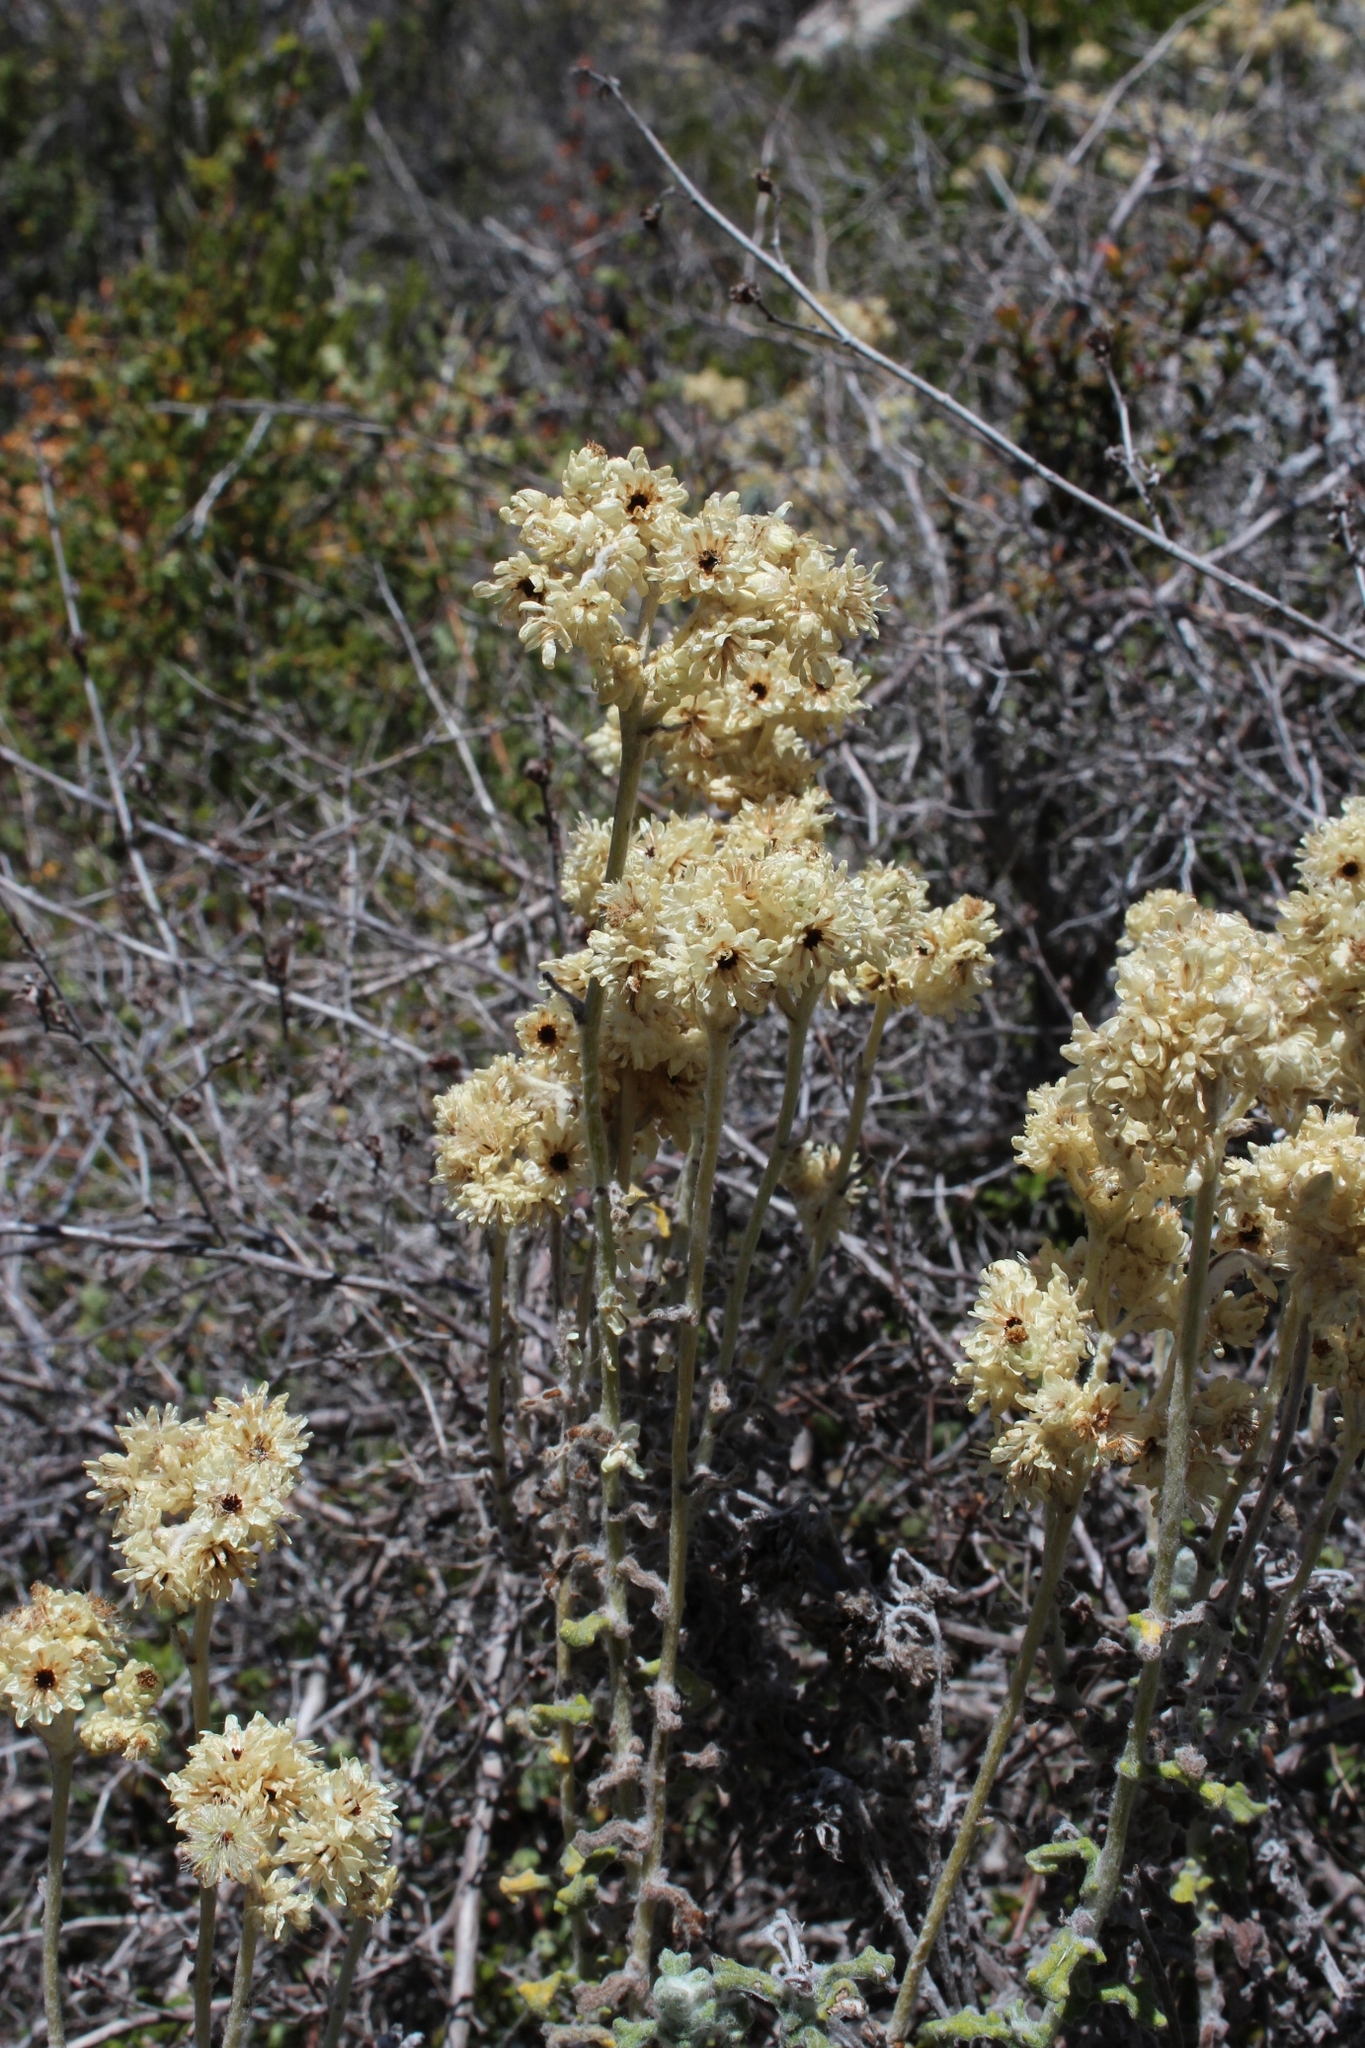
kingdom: Plantae
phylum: Tracheophyta
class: Magnoliopsida
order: Asterales
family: Asteraceae
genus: Helichrysum
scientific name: Helichrysum patulum
